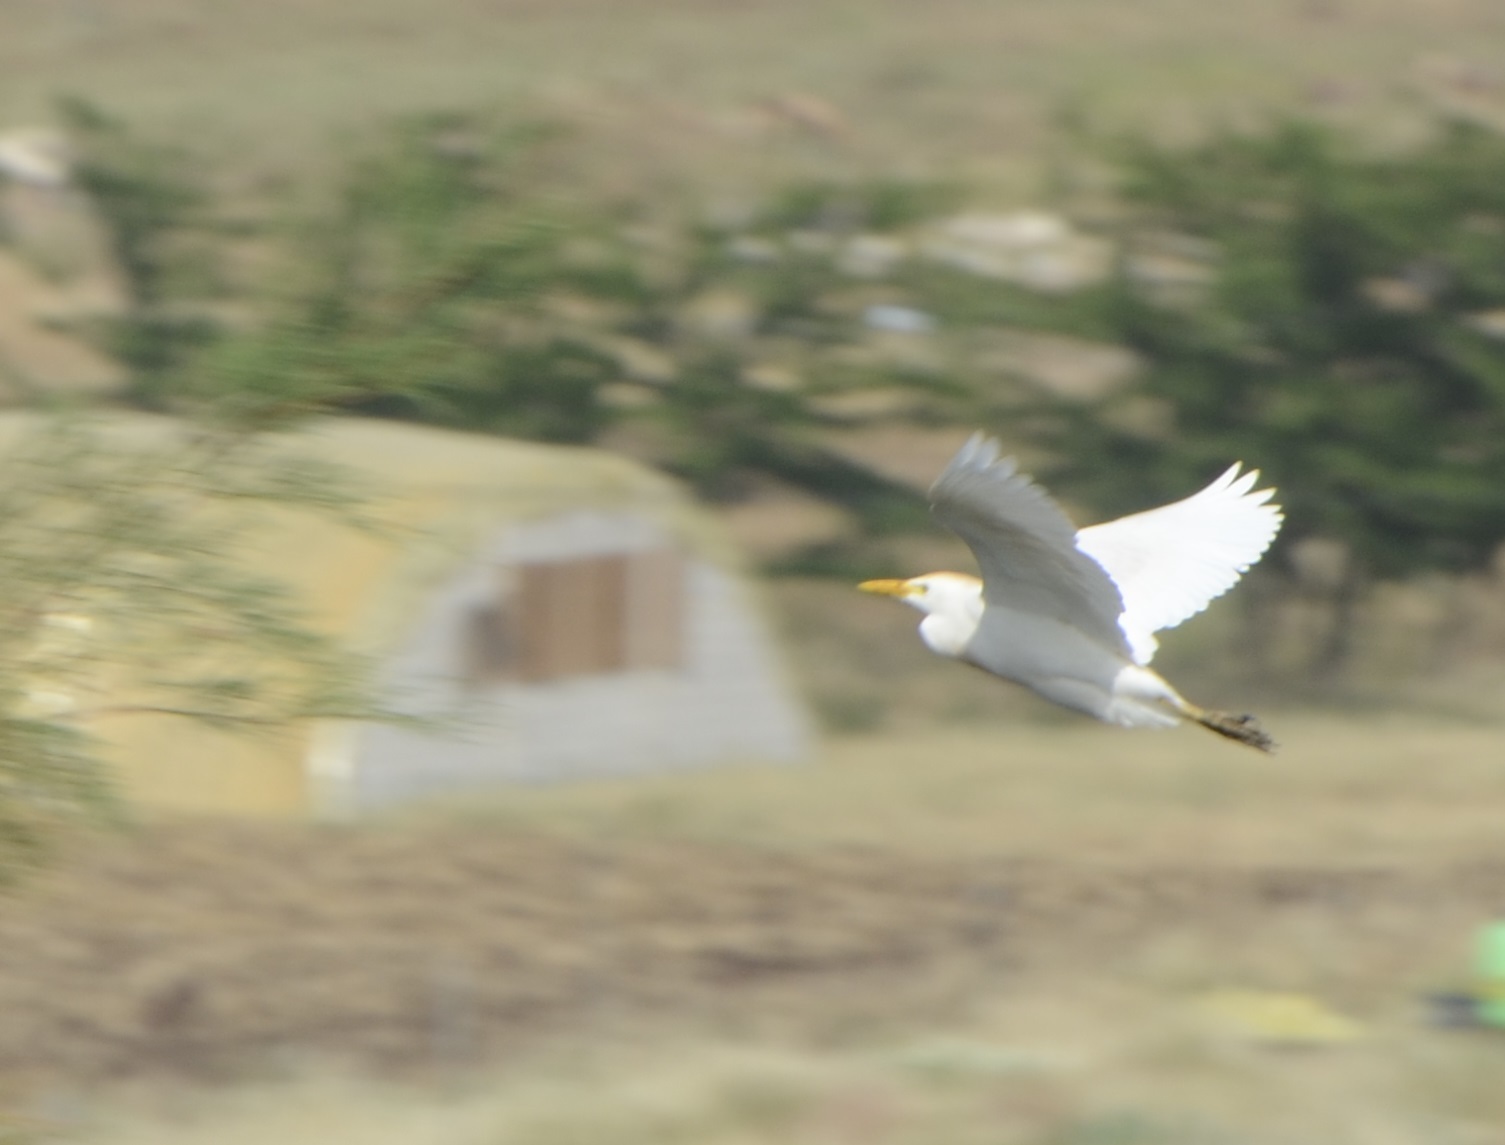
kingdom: Animalia
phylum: Chordata
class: Aves
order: Pelecaniformes
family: Ardeidae
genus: Bubulcus
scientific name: Bubulcus ibis
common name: Cattle egret
